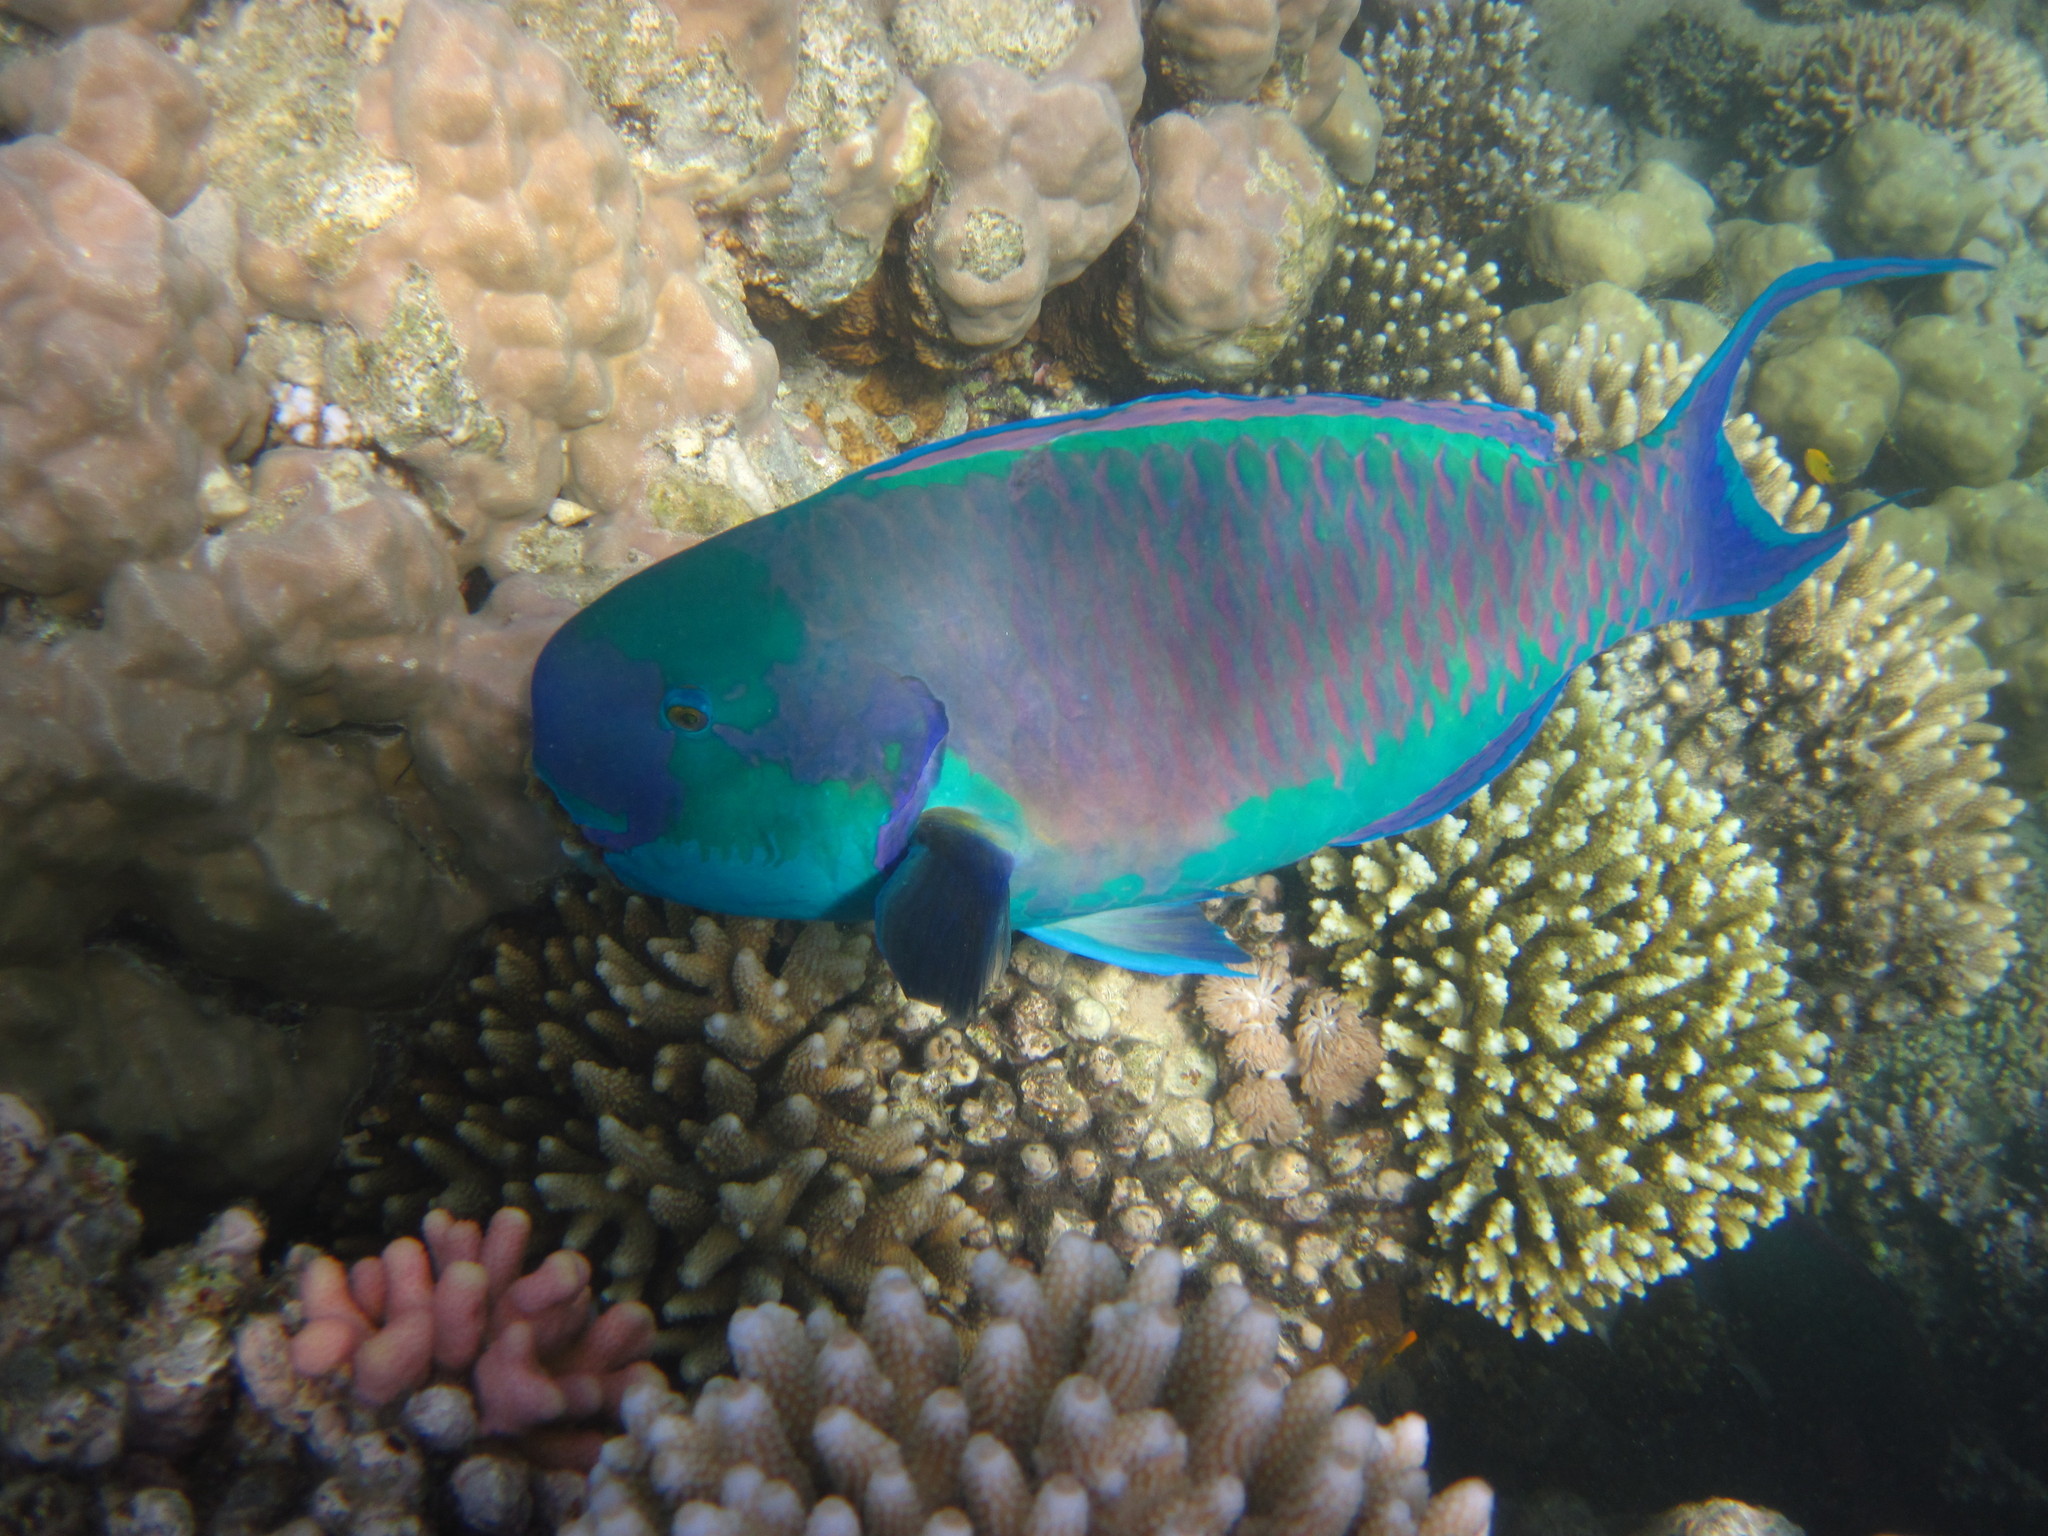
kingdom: Animalia
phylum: Chordata
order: Perciformes
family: Scaridae
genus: Chlorurus
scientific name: Chlorurus gibbus
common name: Heavybeak parrotfish
